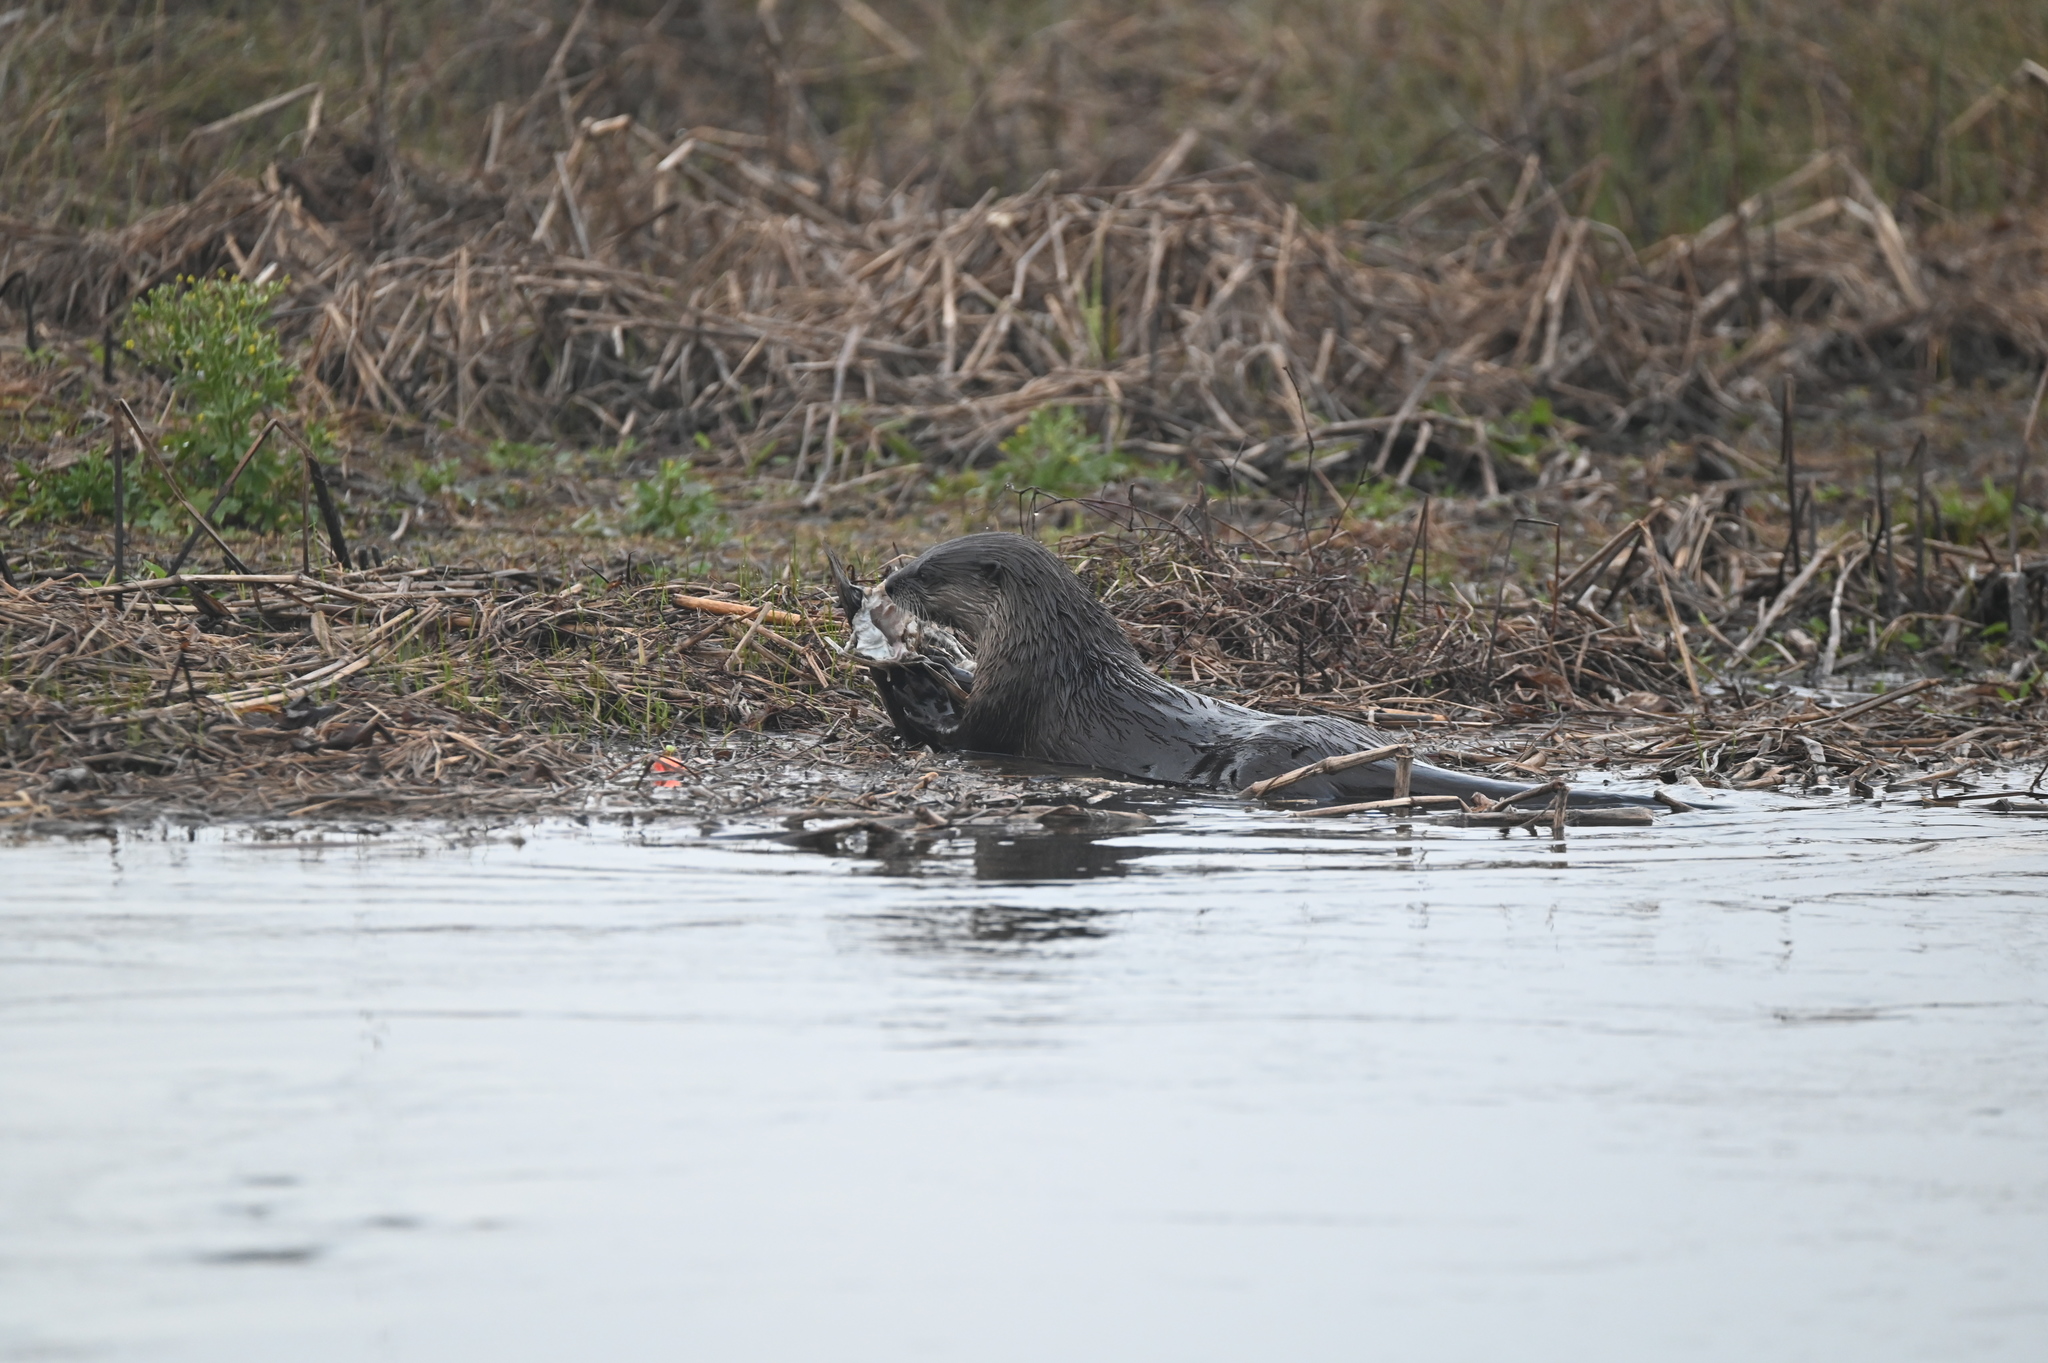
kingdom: Animalia
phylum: Chordata
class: Mammalia
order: Carnivora
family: Mustelidae
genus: Lontra
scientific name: Lontra canadensis
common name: North american river otter
